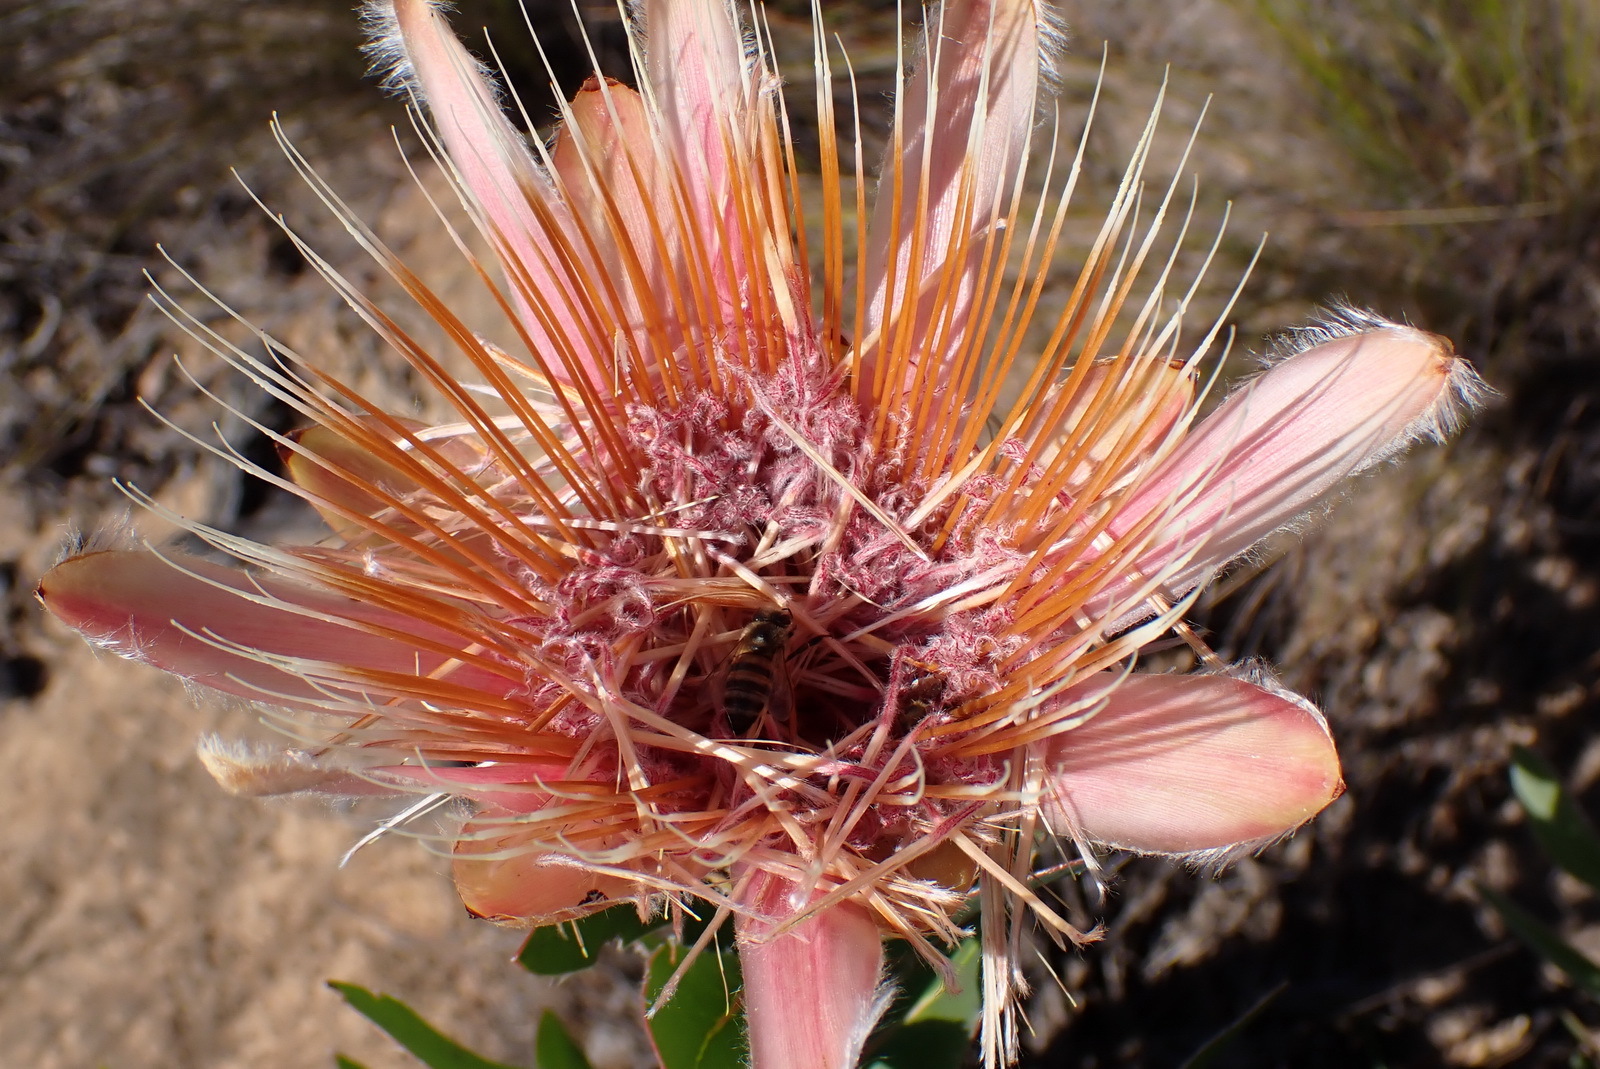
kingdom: Plantae
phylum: Tracheophyta
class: Magnoliopsida
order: Proteales
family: Proteaceae
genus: Protea
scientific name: Protea aurea
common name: Shuttlecock sugarbush
